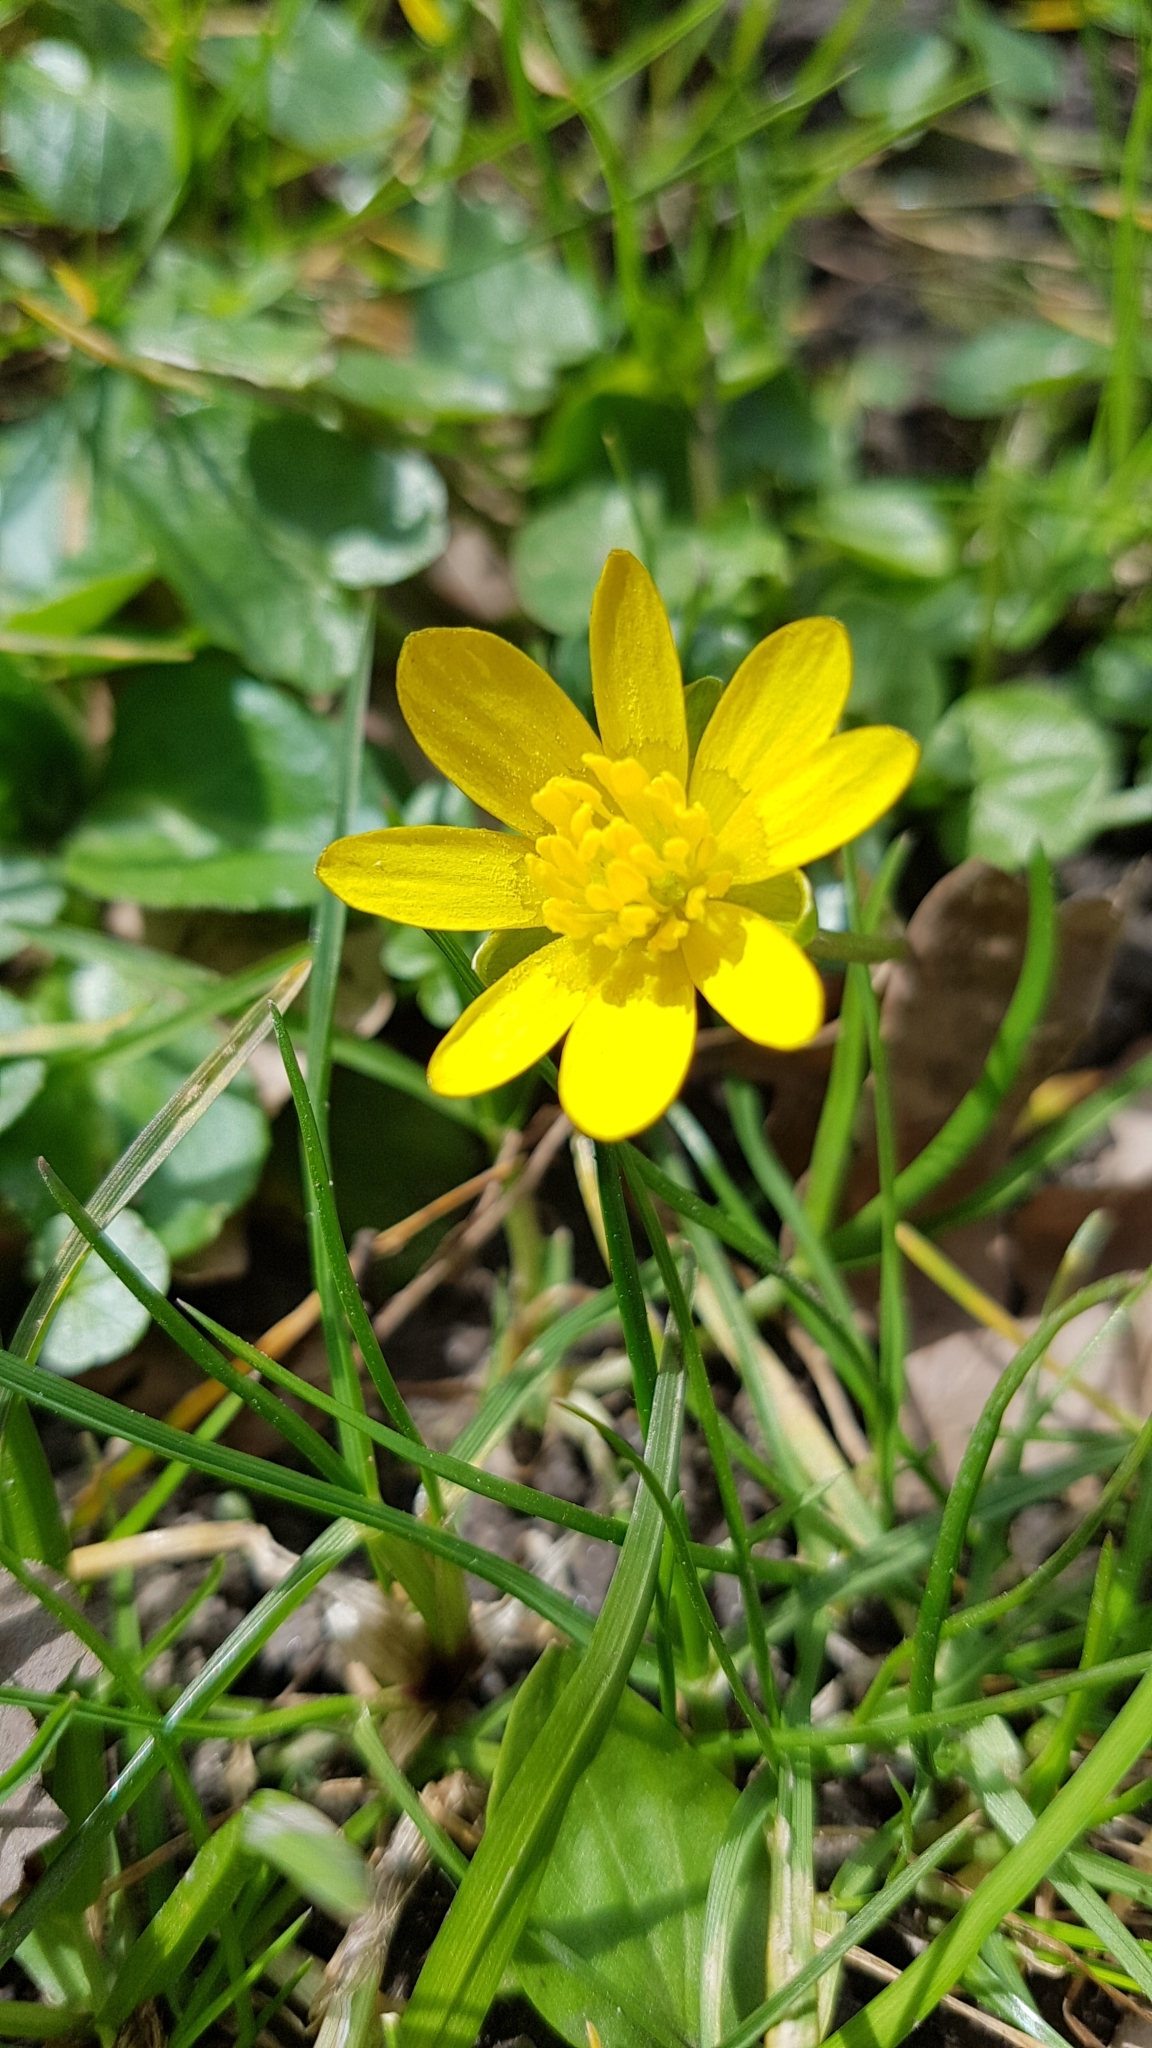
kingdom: Plantae
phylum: Tracheophyta
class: Magnoliopsida
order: Ranunculales
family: Ranunculaceae
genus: Ficaria
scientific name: Ficaria verna
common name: Lesser celandine
